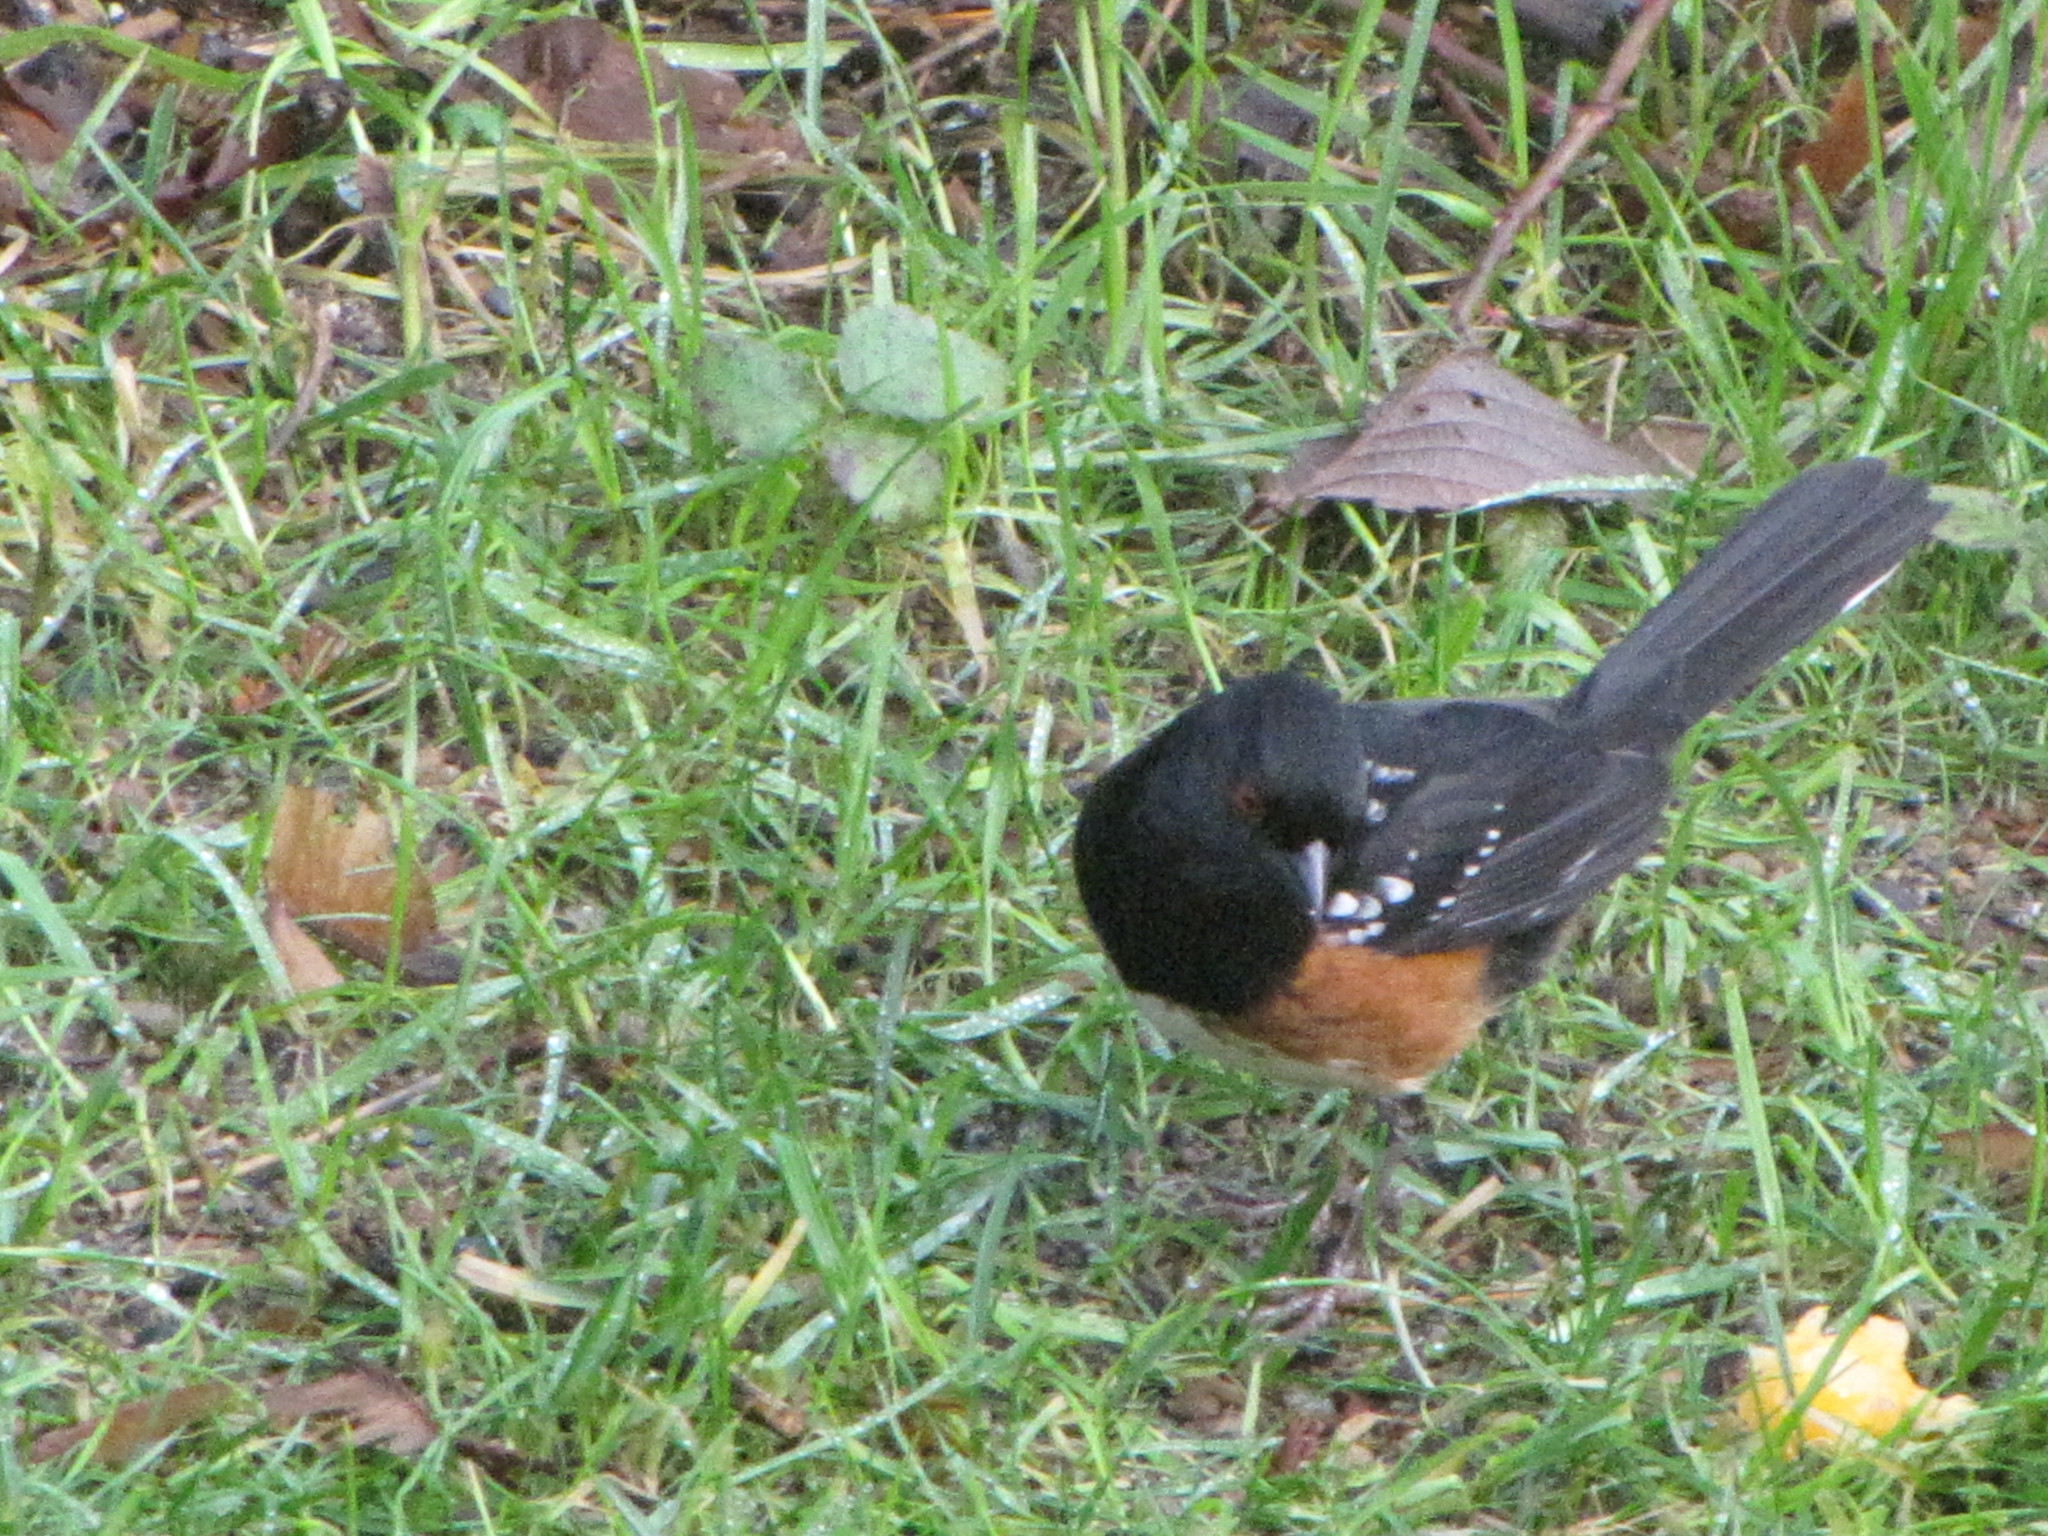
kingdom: Animalia
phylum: Chordata
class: Aves
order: Passeriformes
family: Passerellidae
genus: Pipilo
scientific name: Pipilo maculatus
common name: Spotted towhee
